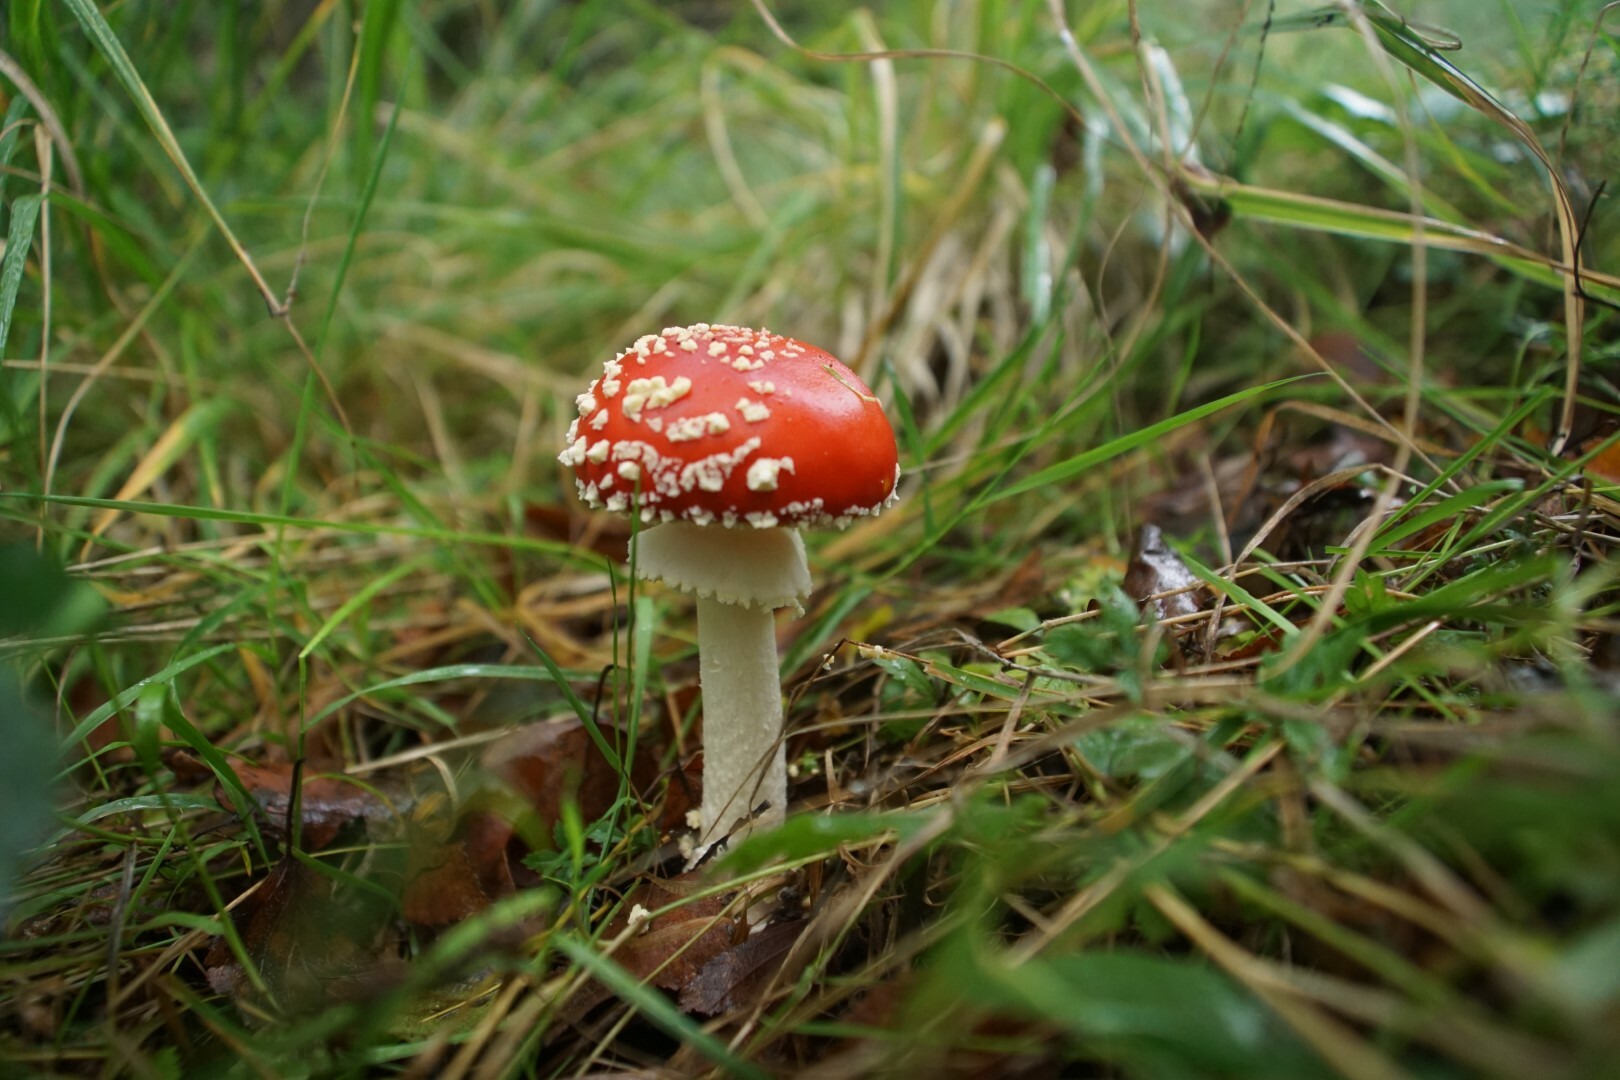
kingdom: Fungi
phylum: Basidiomycota
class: Agaricomycetes
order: Agaricales
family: Amanitaceae
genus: Amanita
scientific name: Amanita muscaria
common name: Fly agaric
